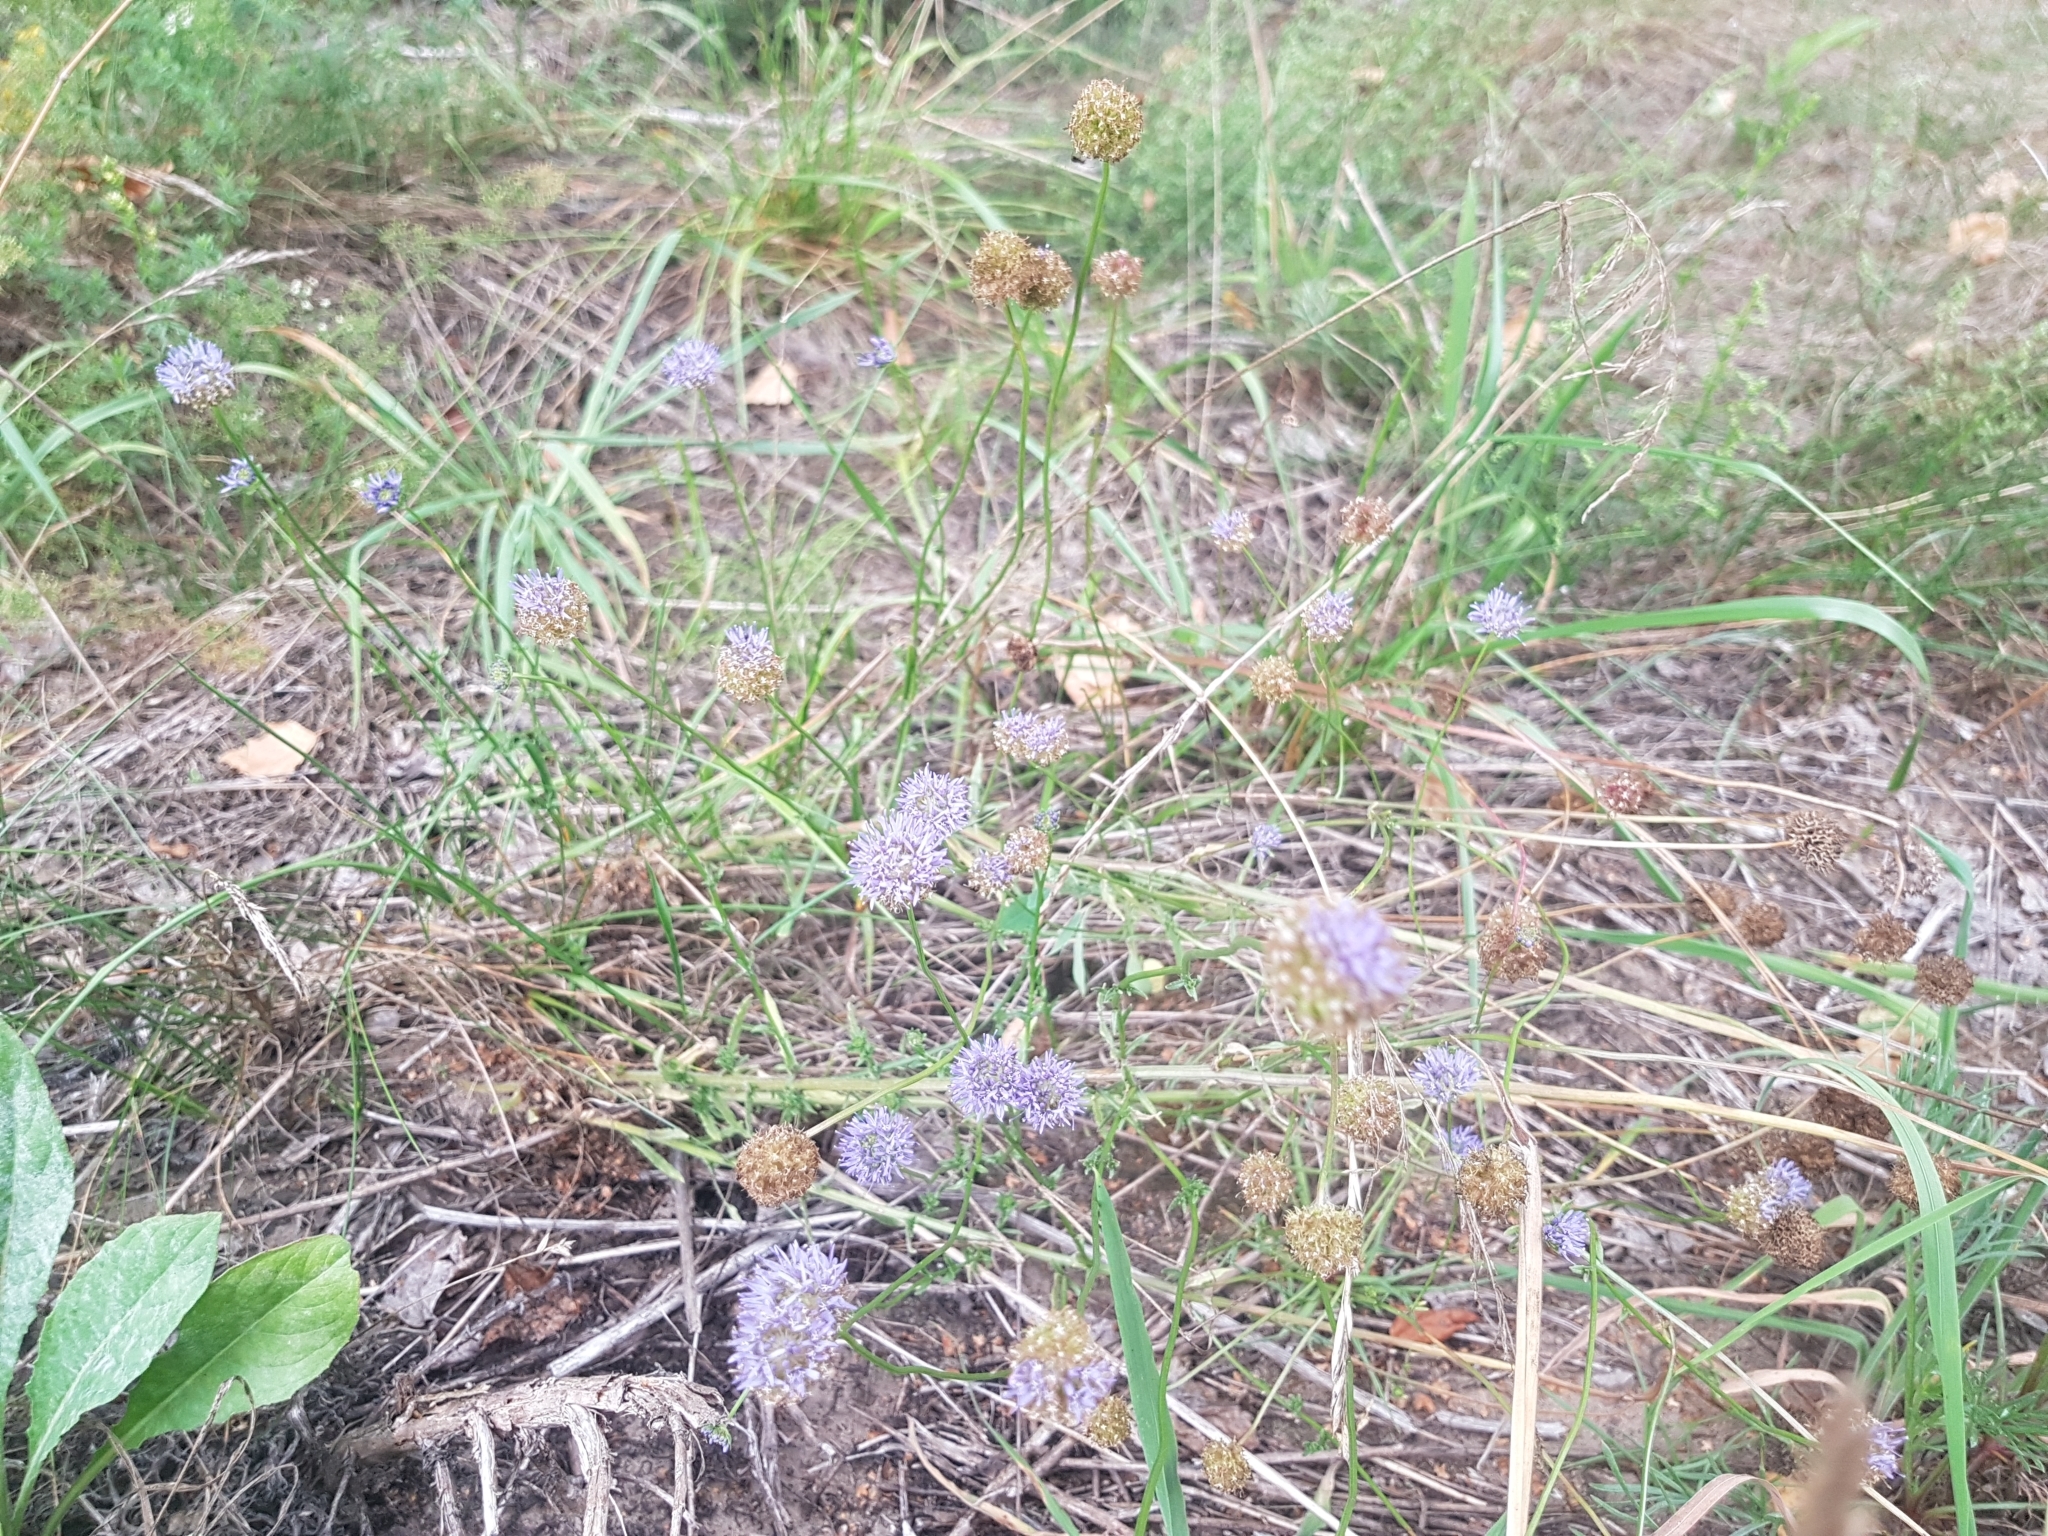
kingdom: Plantae
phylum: Tracheophyta
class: Magnoliopsida
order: Asterales
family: Campanulaceae
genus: Jasione
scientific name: Jasione montana
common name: Sheep's-bit
